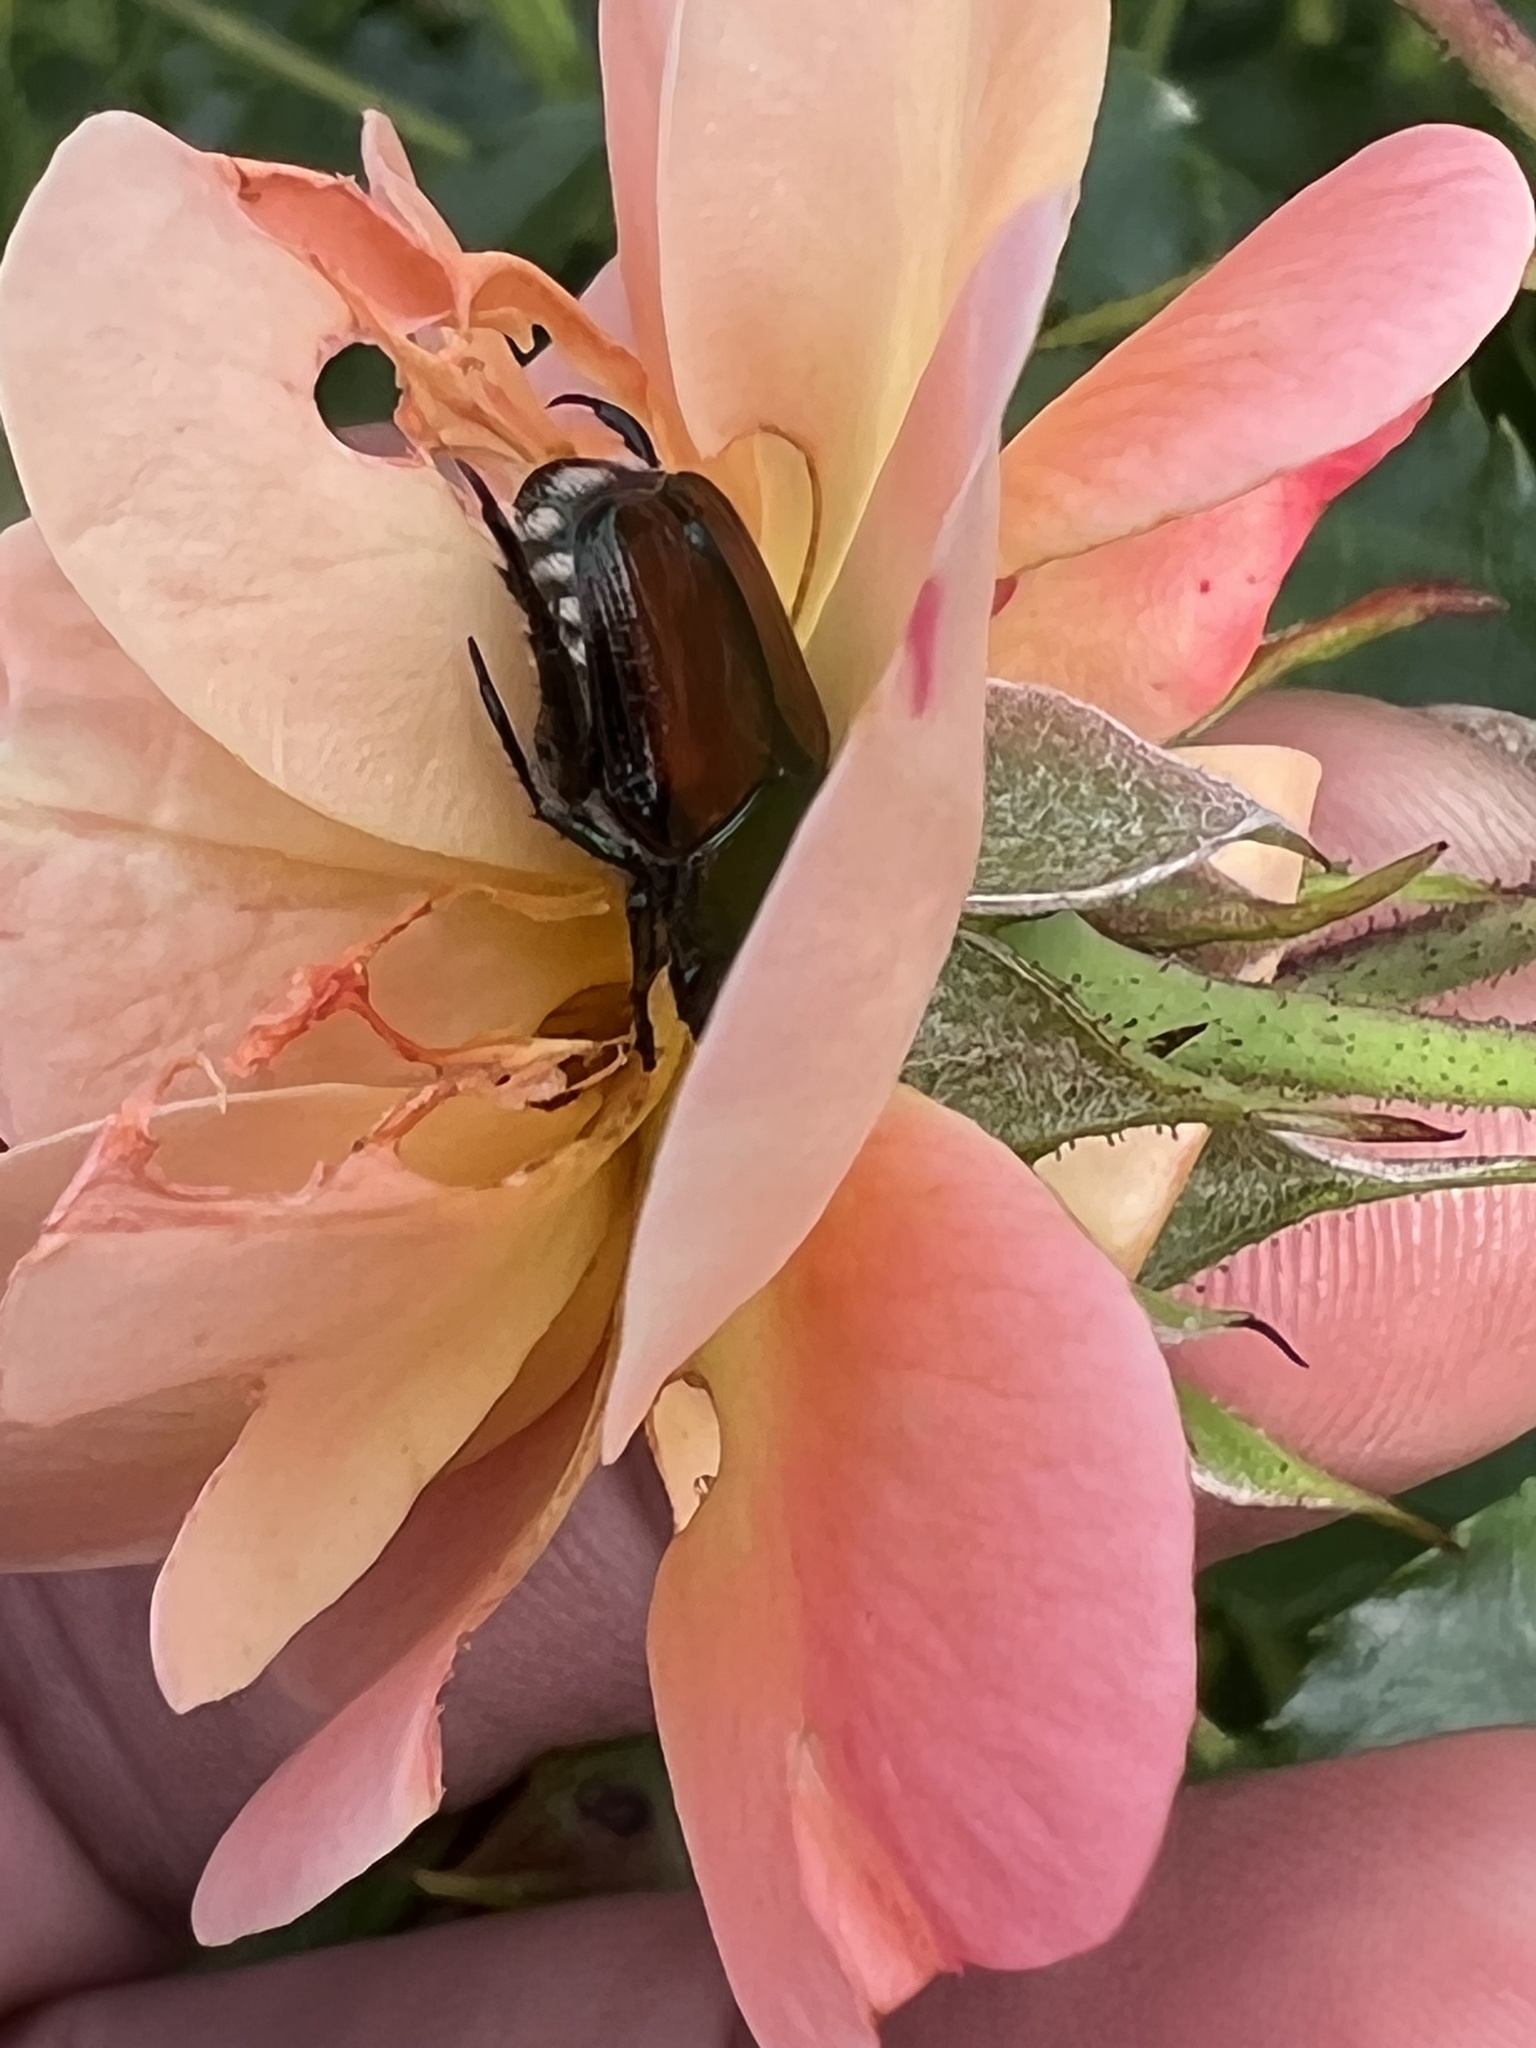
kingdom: Animalia
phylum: Arthropoda
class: Insecta
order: Coleoptera
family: Scarabaeidae
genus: Popillia
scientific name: Popillia japonica
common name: Japanese beetle
